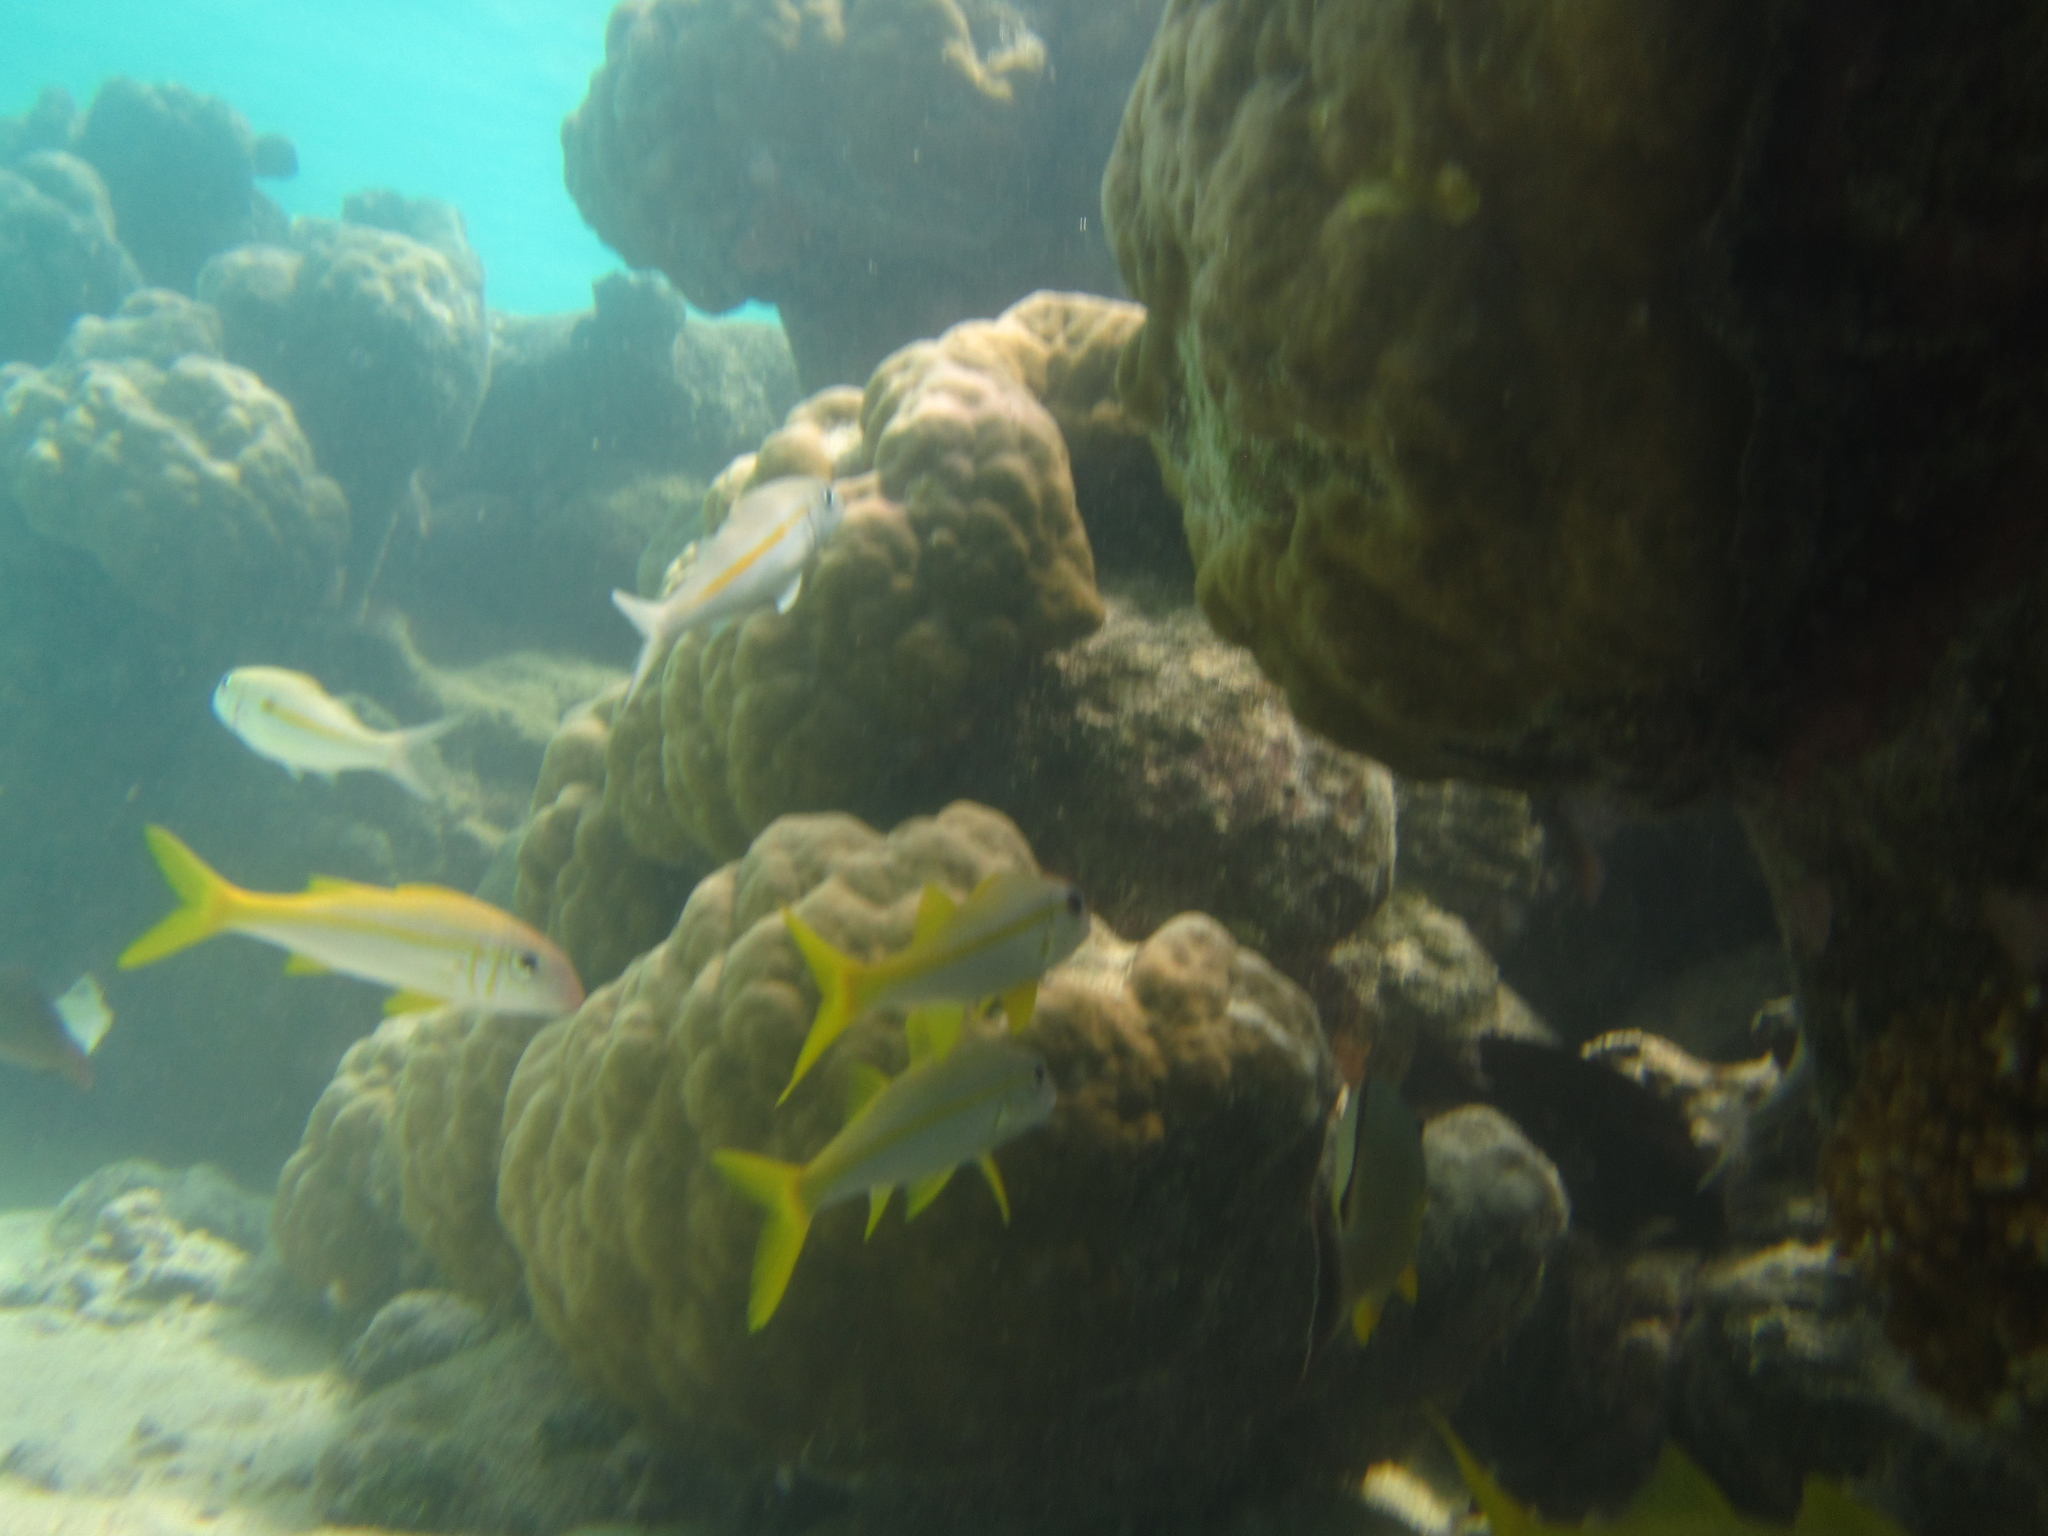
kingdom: Animalia
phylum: Chordata
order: Perciformes
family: Mullidae
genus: Mulloidichthys
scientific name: Mulloidichthys vanicolensis
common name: Yellowfin goatfish
